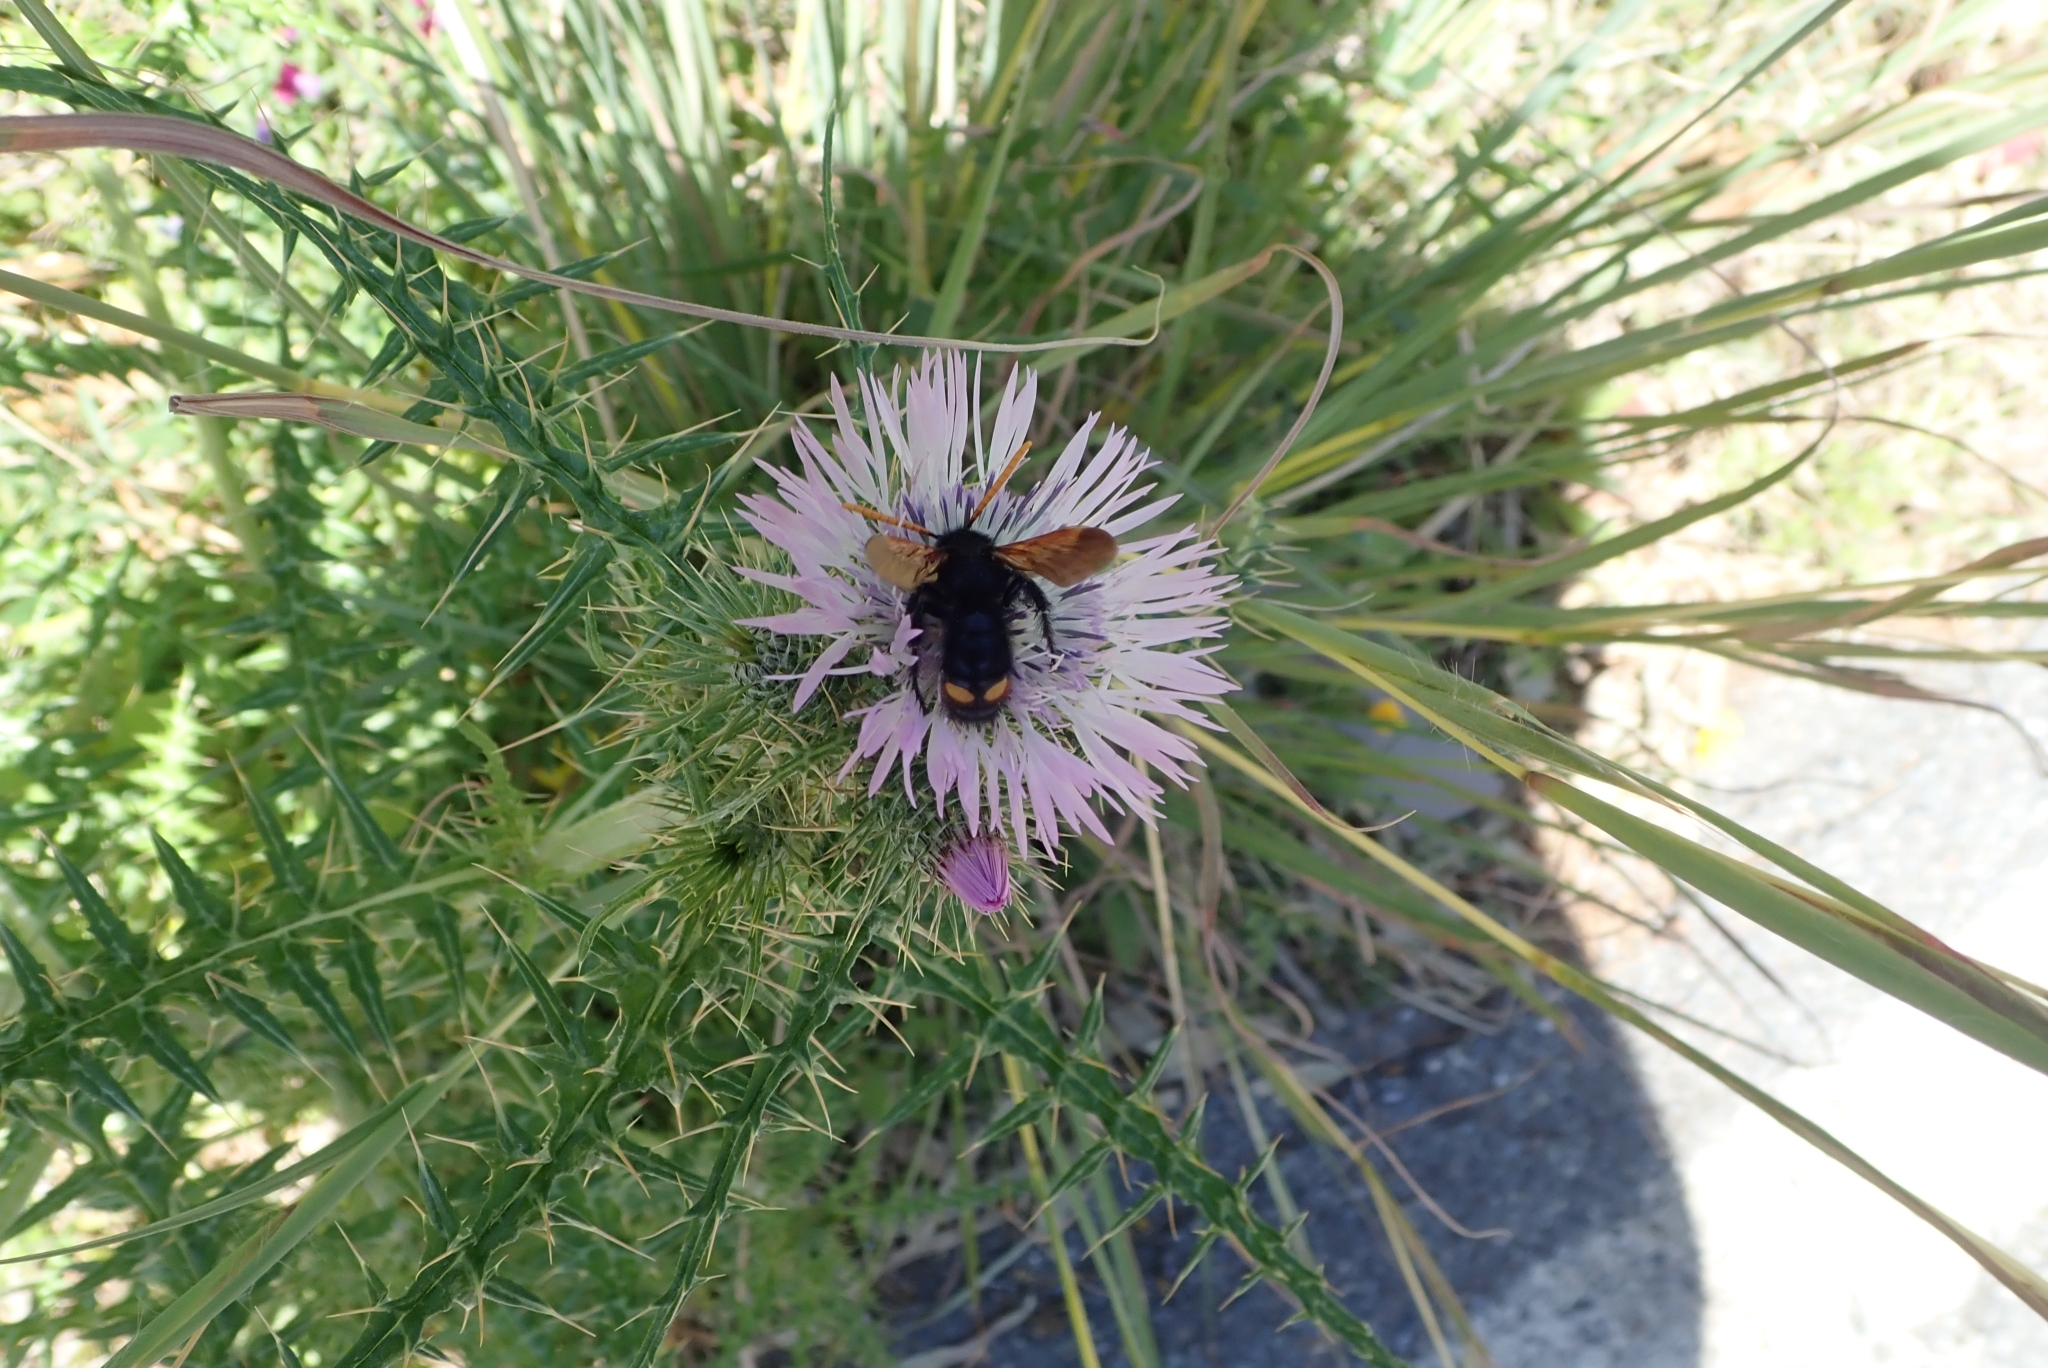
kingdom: Animalia
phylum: Arthropoda
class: Insecta
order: Hymenoptera
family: Scoliidae
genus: Megascolia
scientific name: Megascolia bidens
